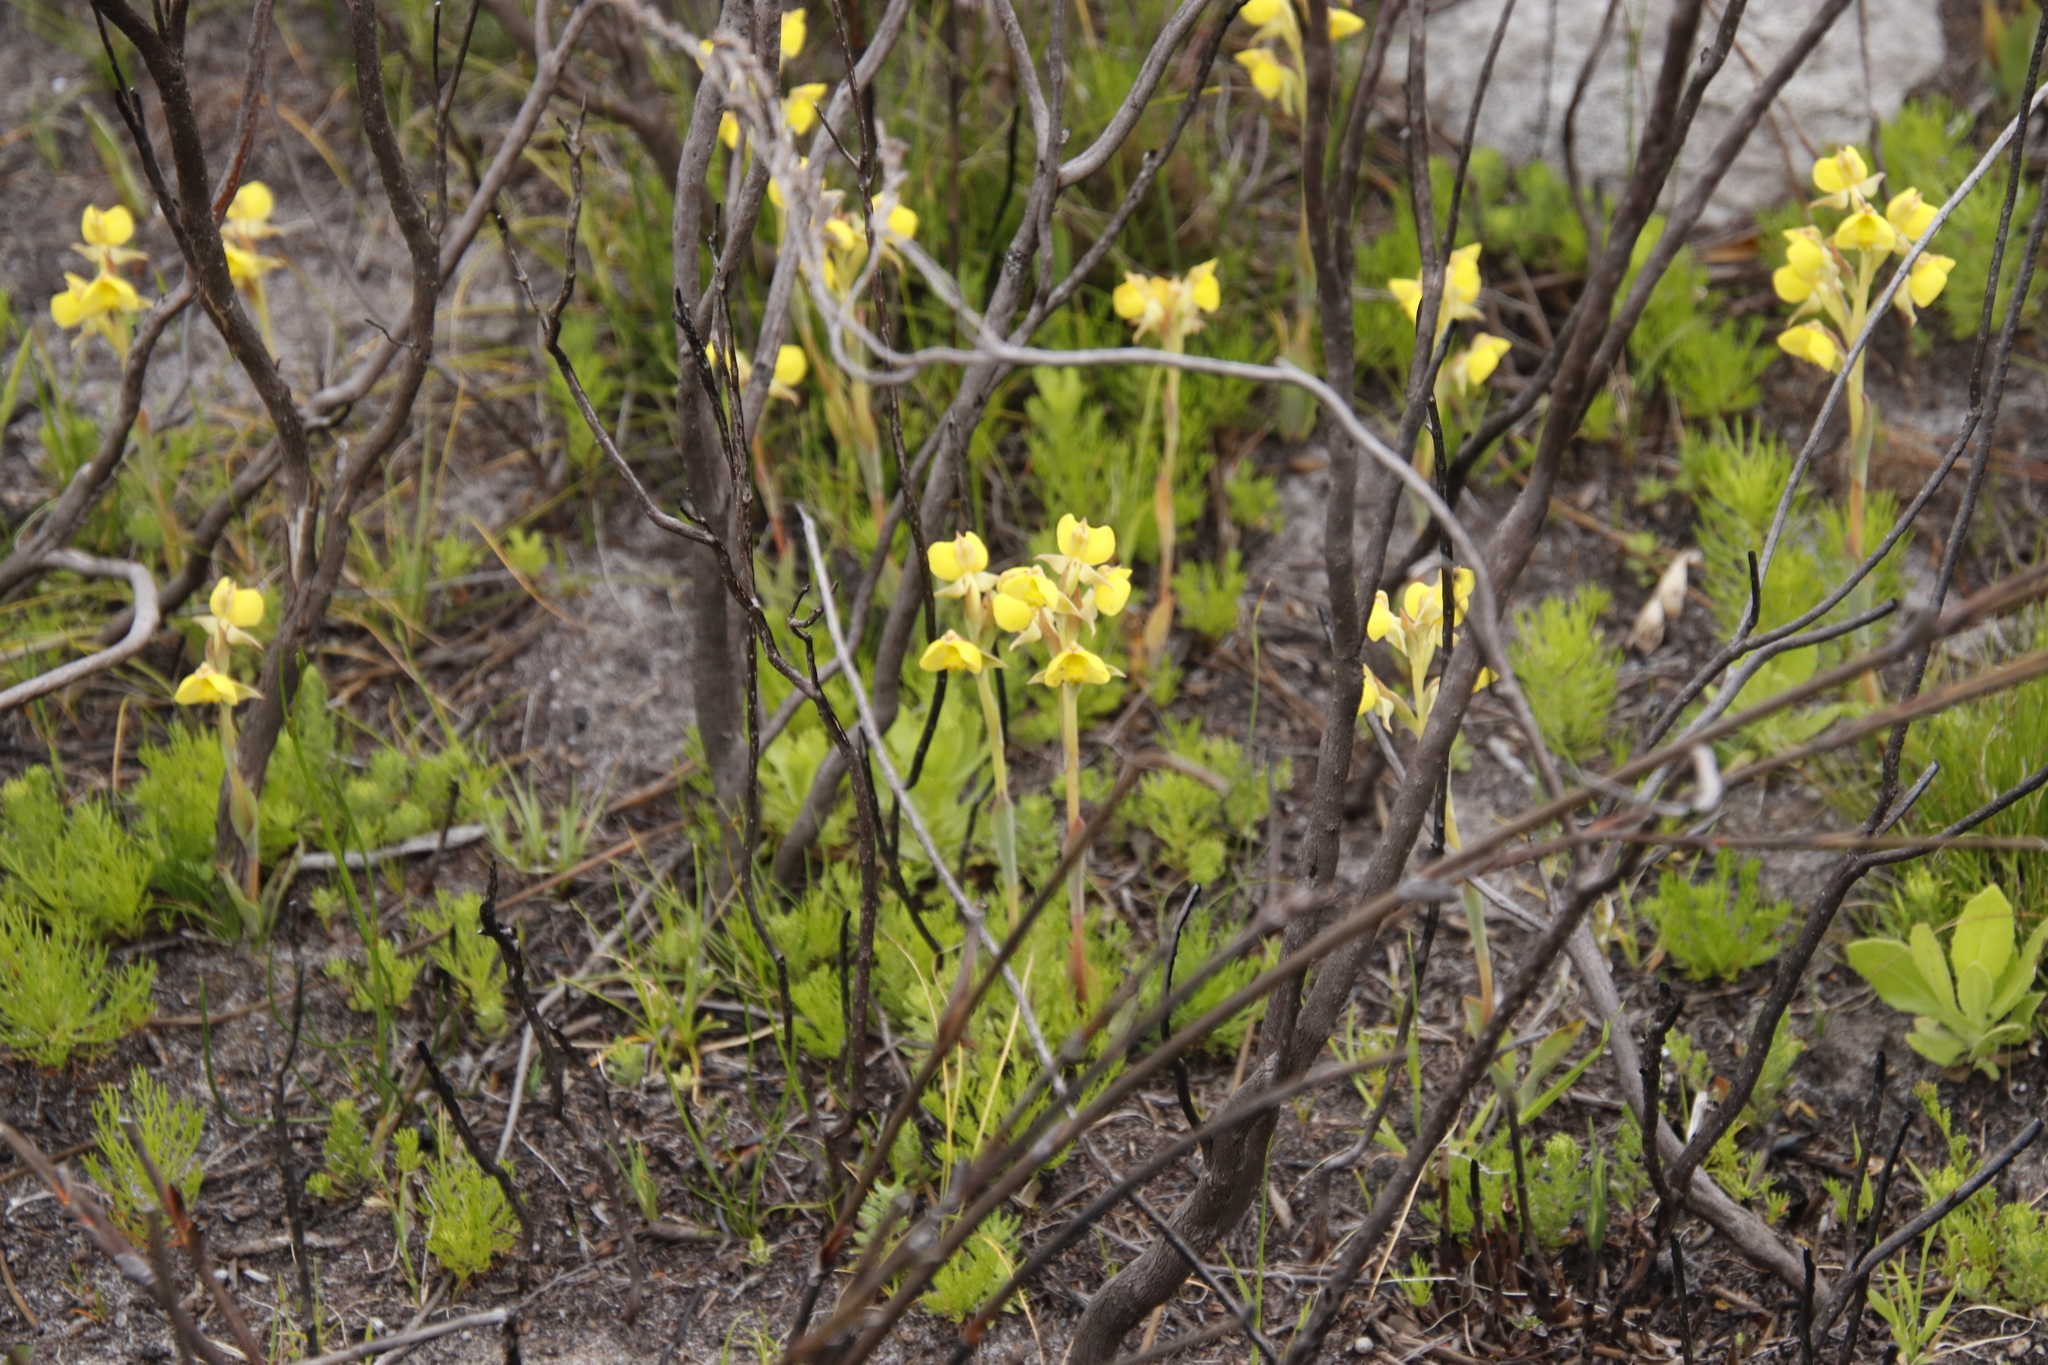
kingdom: Plantae
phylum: Tracheophyta
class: Liliopsida
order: Asparagales
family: Orchidaceae
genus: Pterygodium
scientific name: Pterygodium acutifolium
